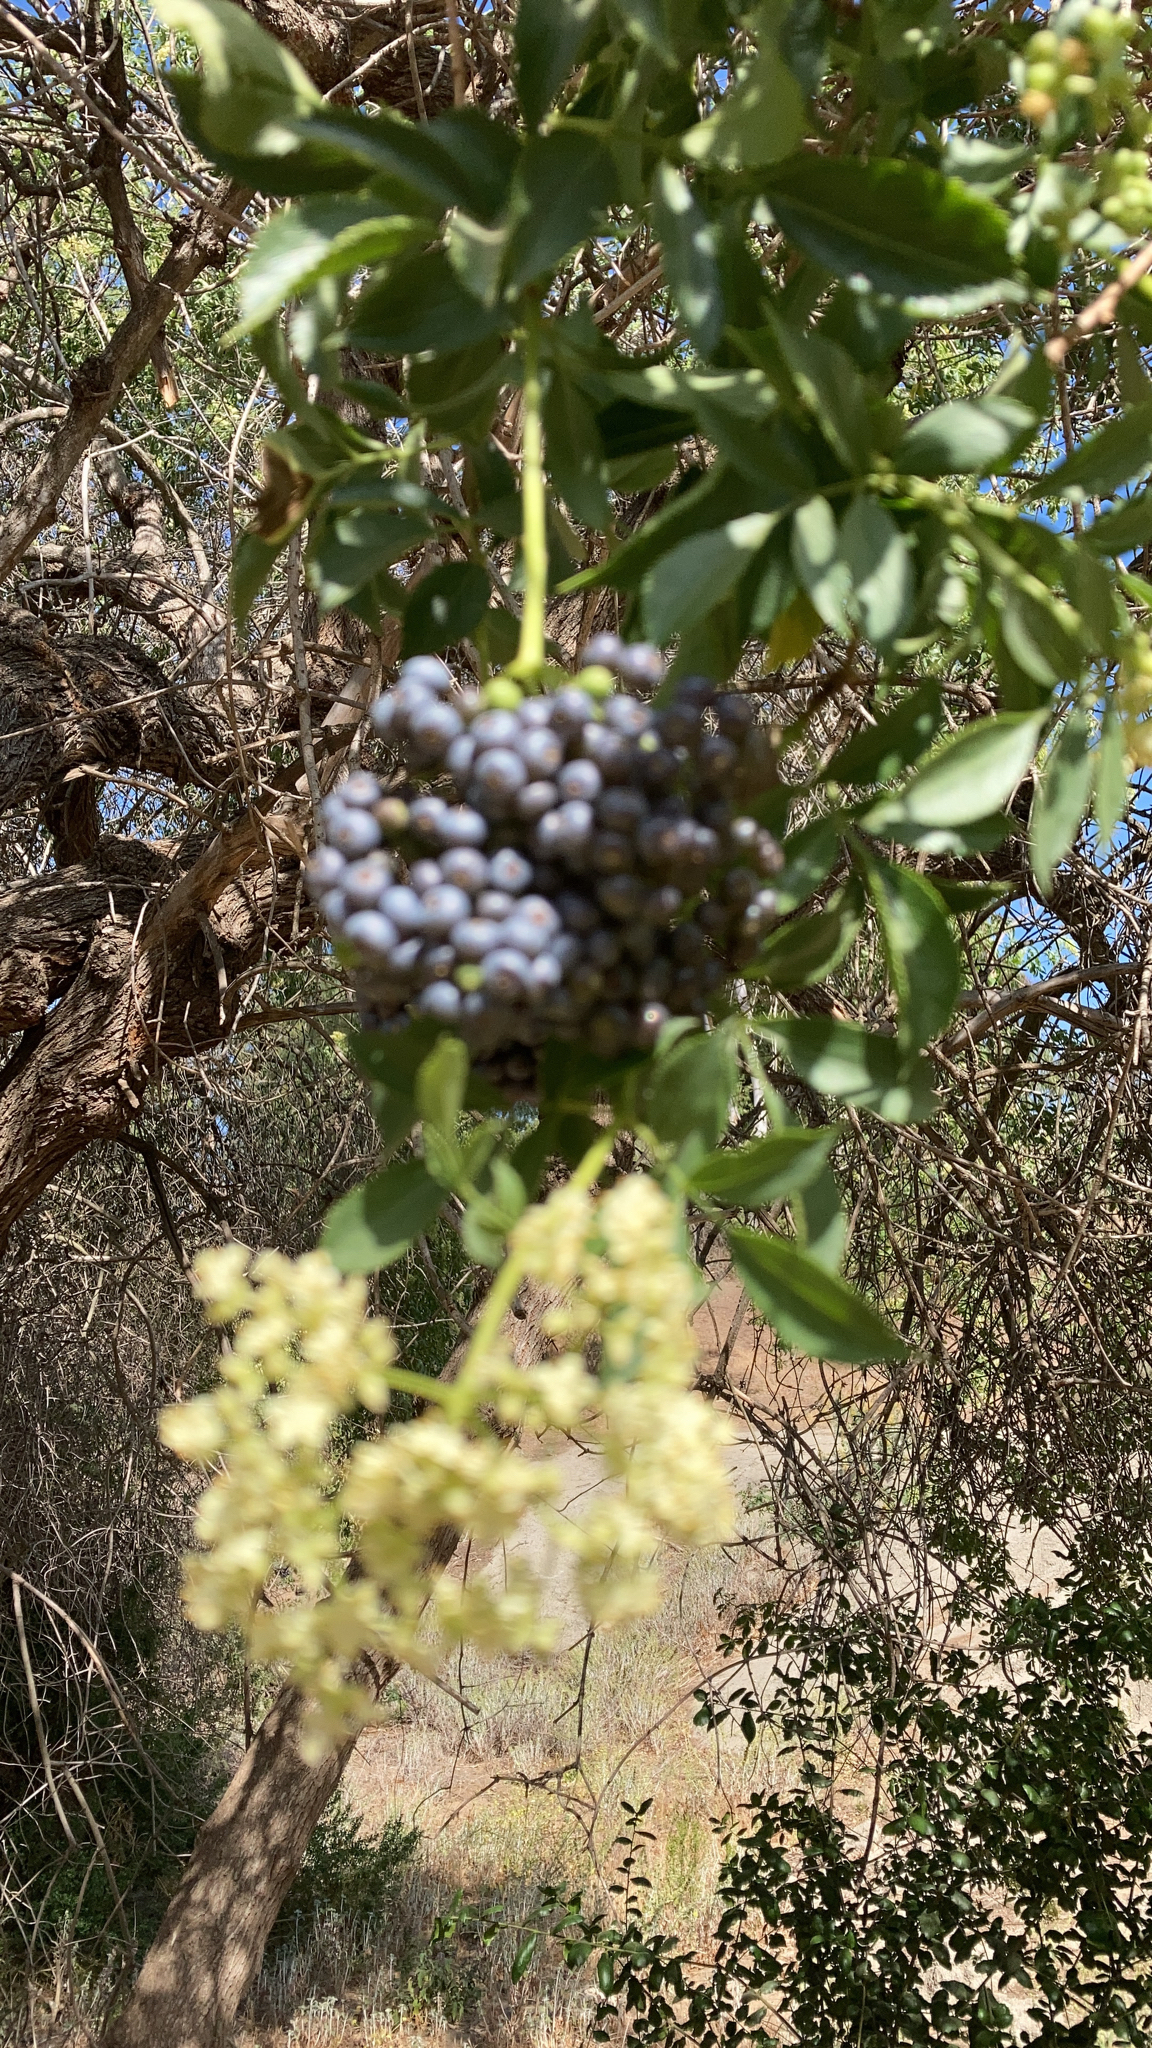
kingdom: Plantae
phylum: Tracheophyta
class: Magnoliopsida
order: Dipsacales
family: Viburnaceae
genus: Sambucus
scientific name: Sambucus cerulea
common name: Blue elder
